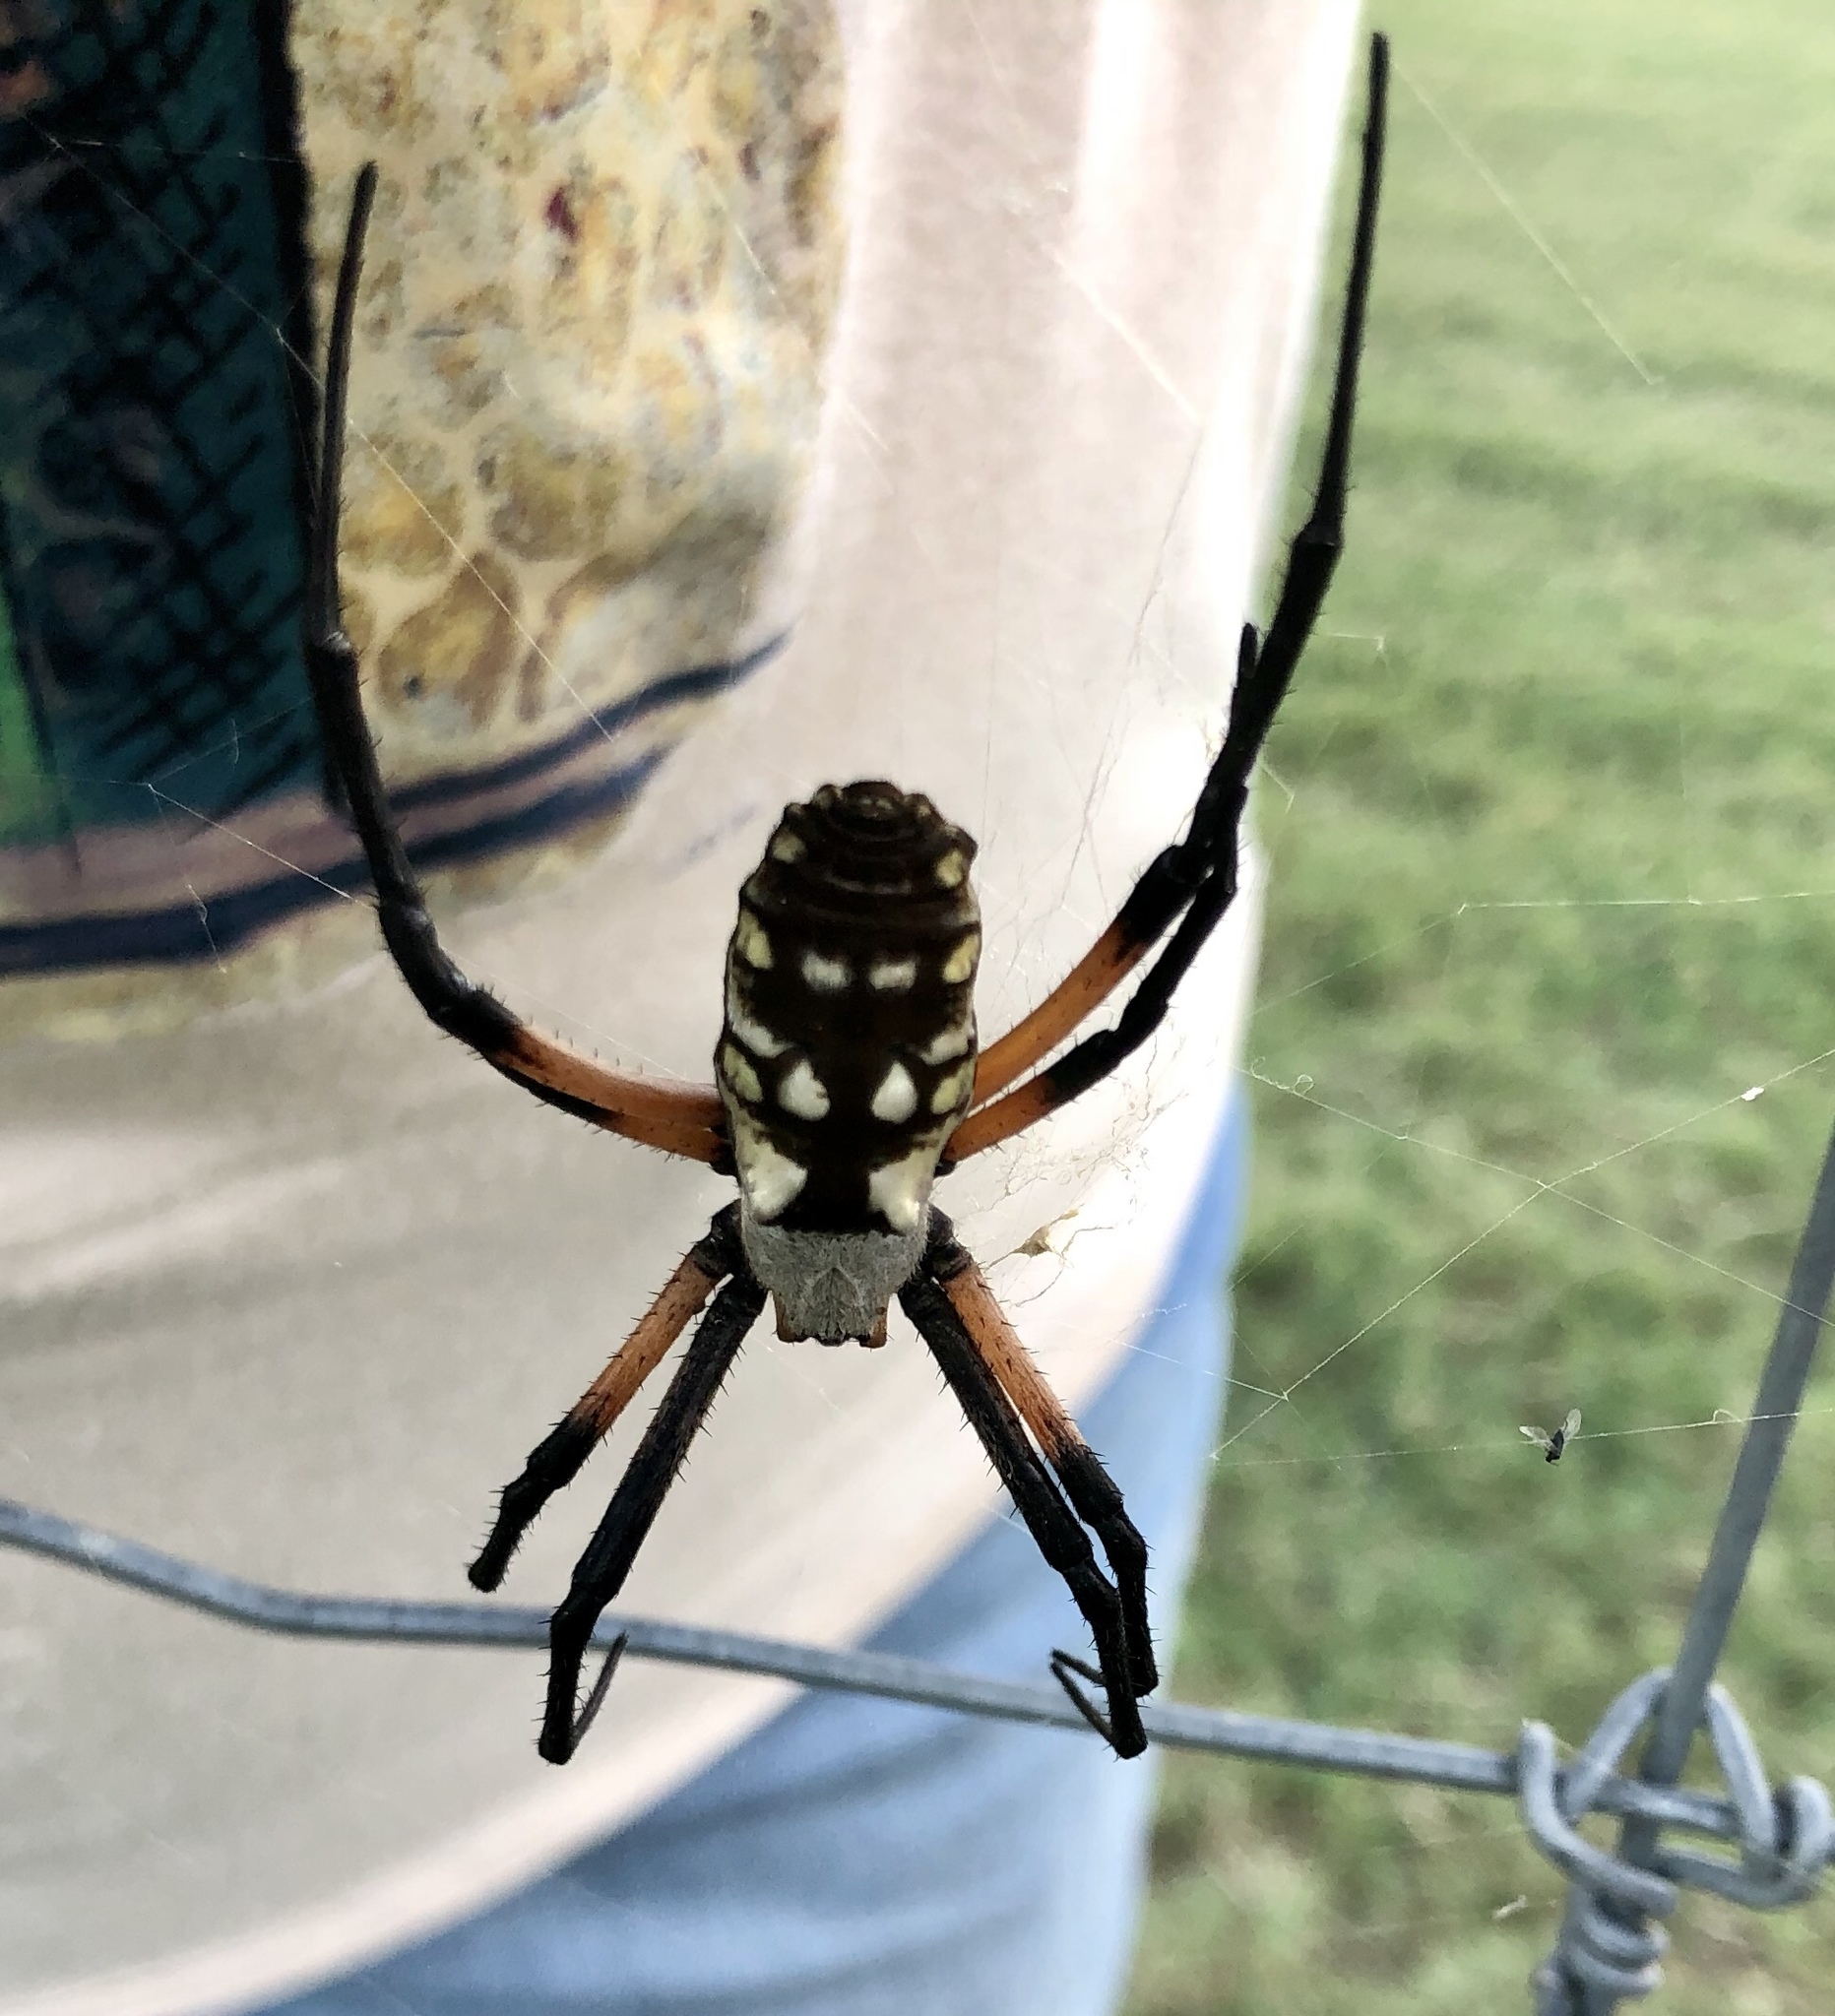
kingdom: Animalia
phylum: Arthropoda
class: Arachnida
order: Araneae
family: Araneidae
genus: Argiope
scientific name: Argiope aurantia
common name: Orb weavers
